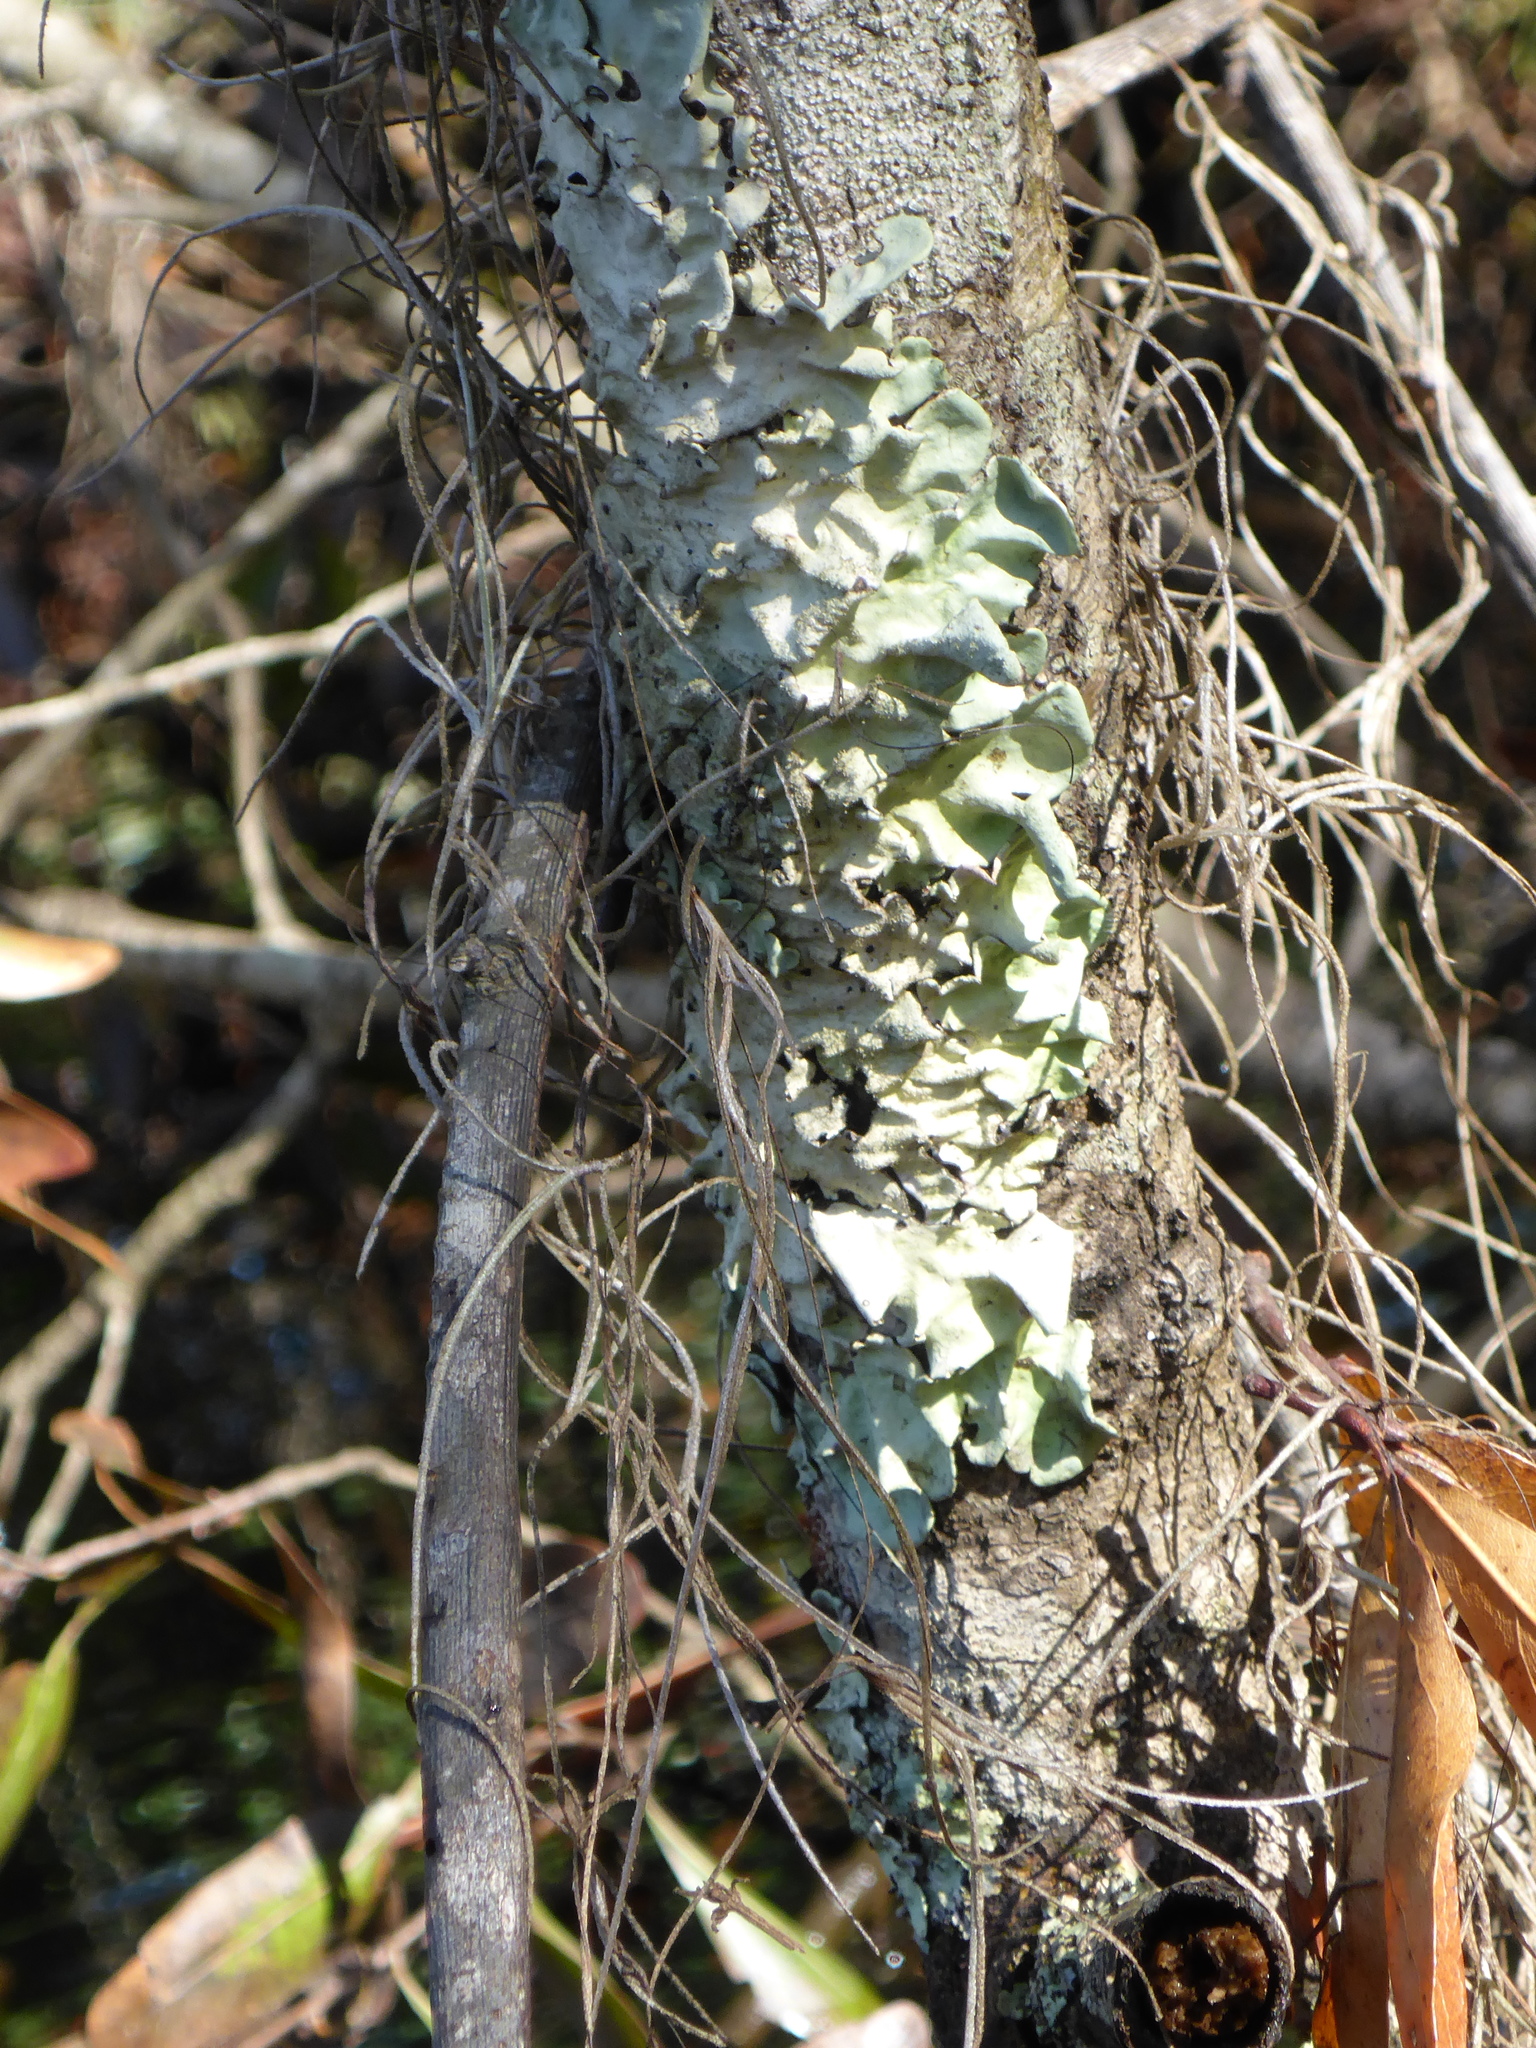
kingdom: Fungi
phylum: Ascomycota
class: Lecanoromycetes
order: Lecanorales
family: Parmeliaceae
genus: Parmotrema
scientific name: Parmotrema tinctorum
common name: Old gray ruffles
